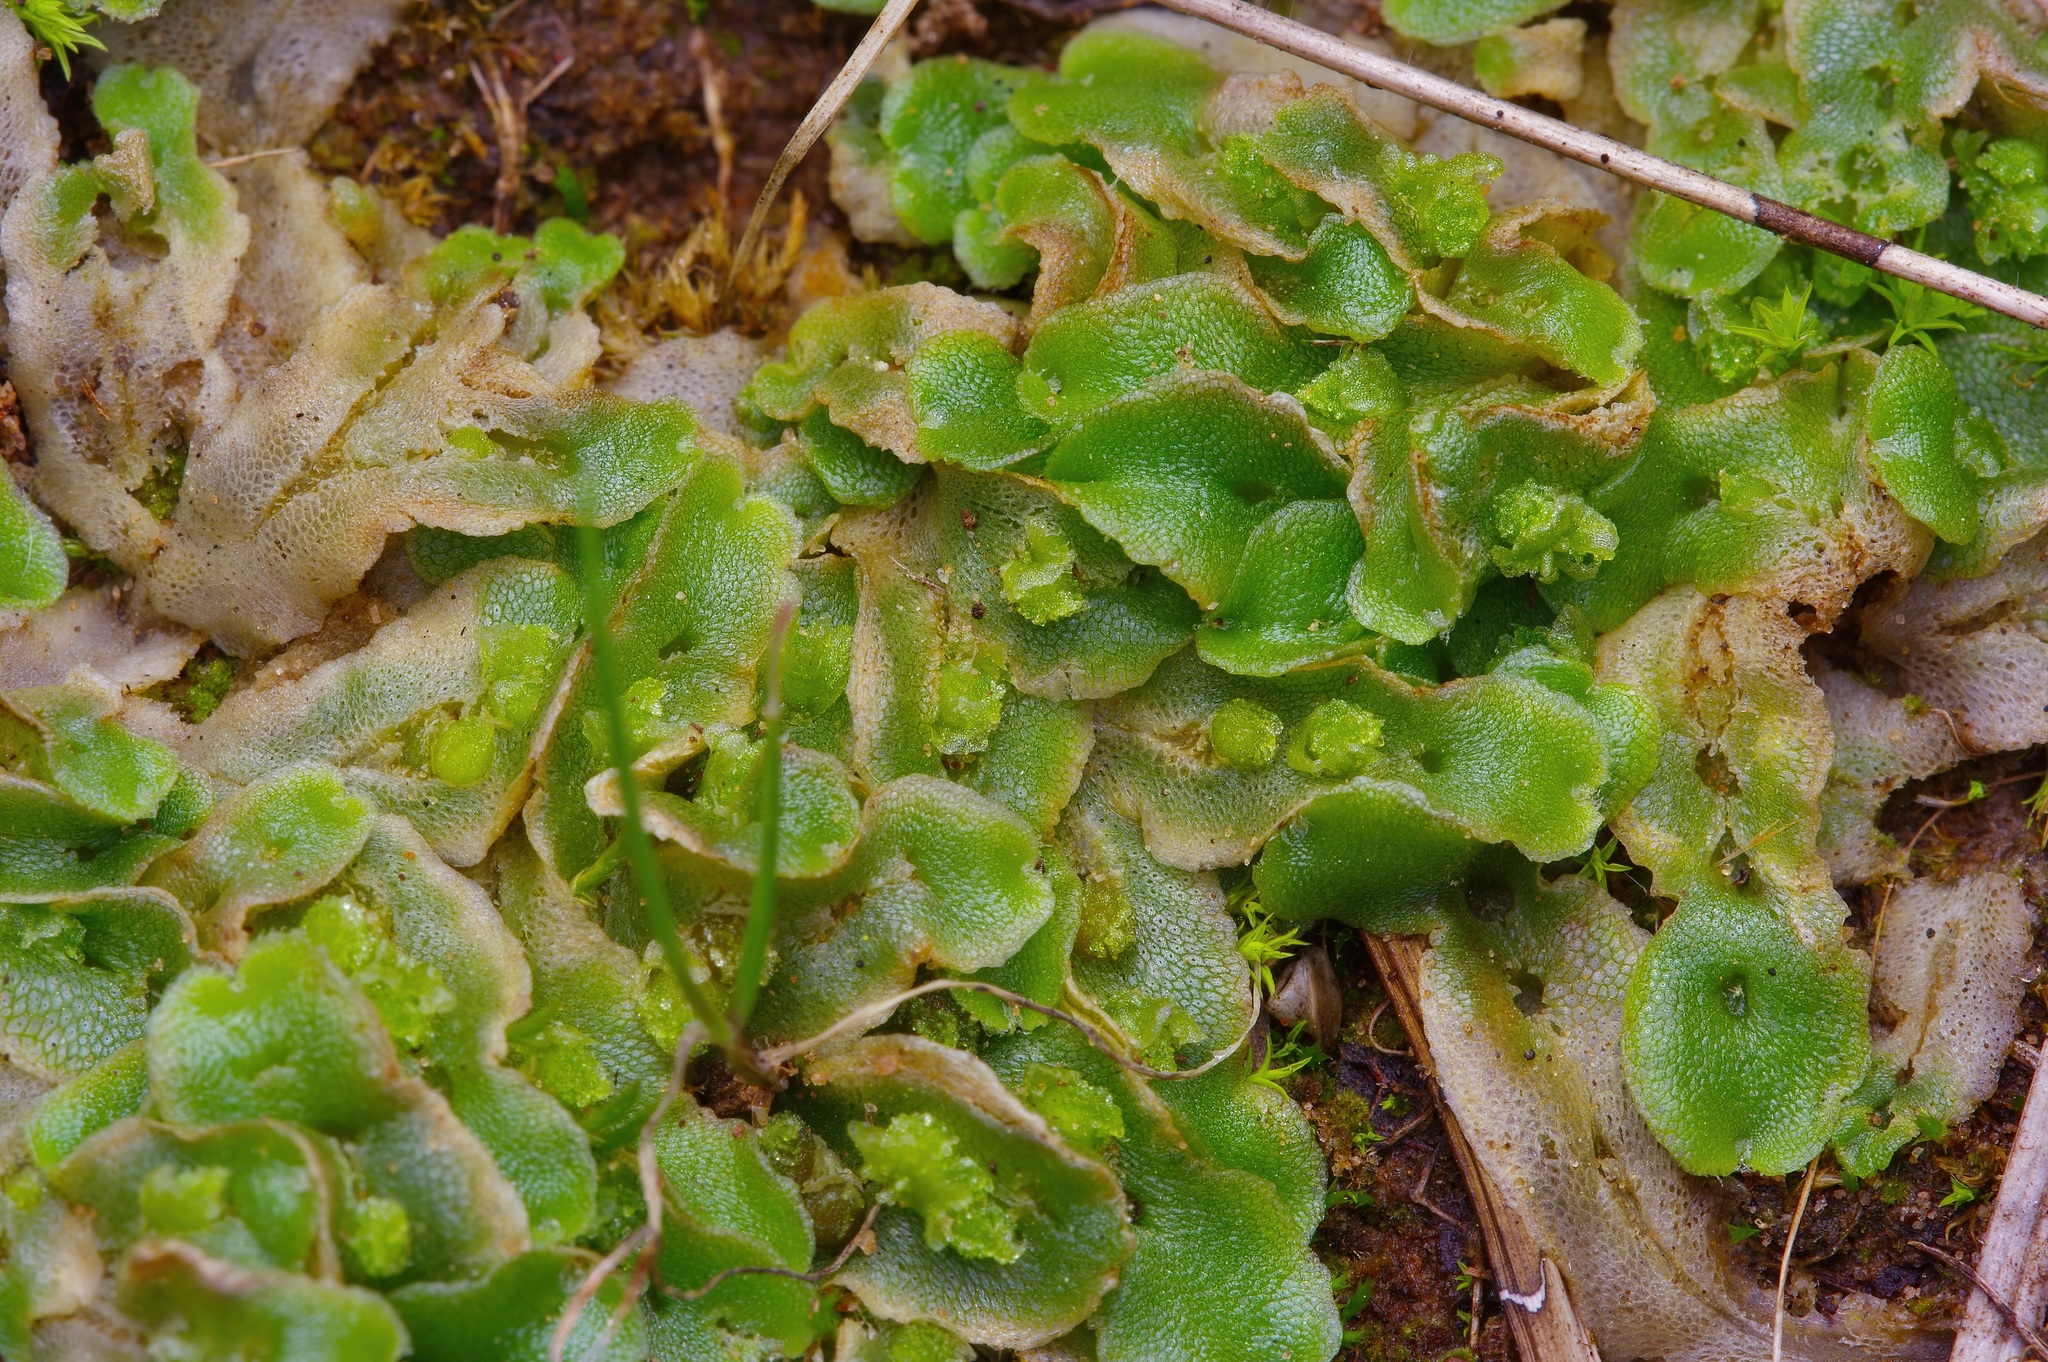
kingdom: Plantae
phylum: Marchantiophyta
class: Marchantiopsida
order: Marchantiales
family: Corsiniaceae
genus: Corsinia
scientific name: Corsinia coriandrina
